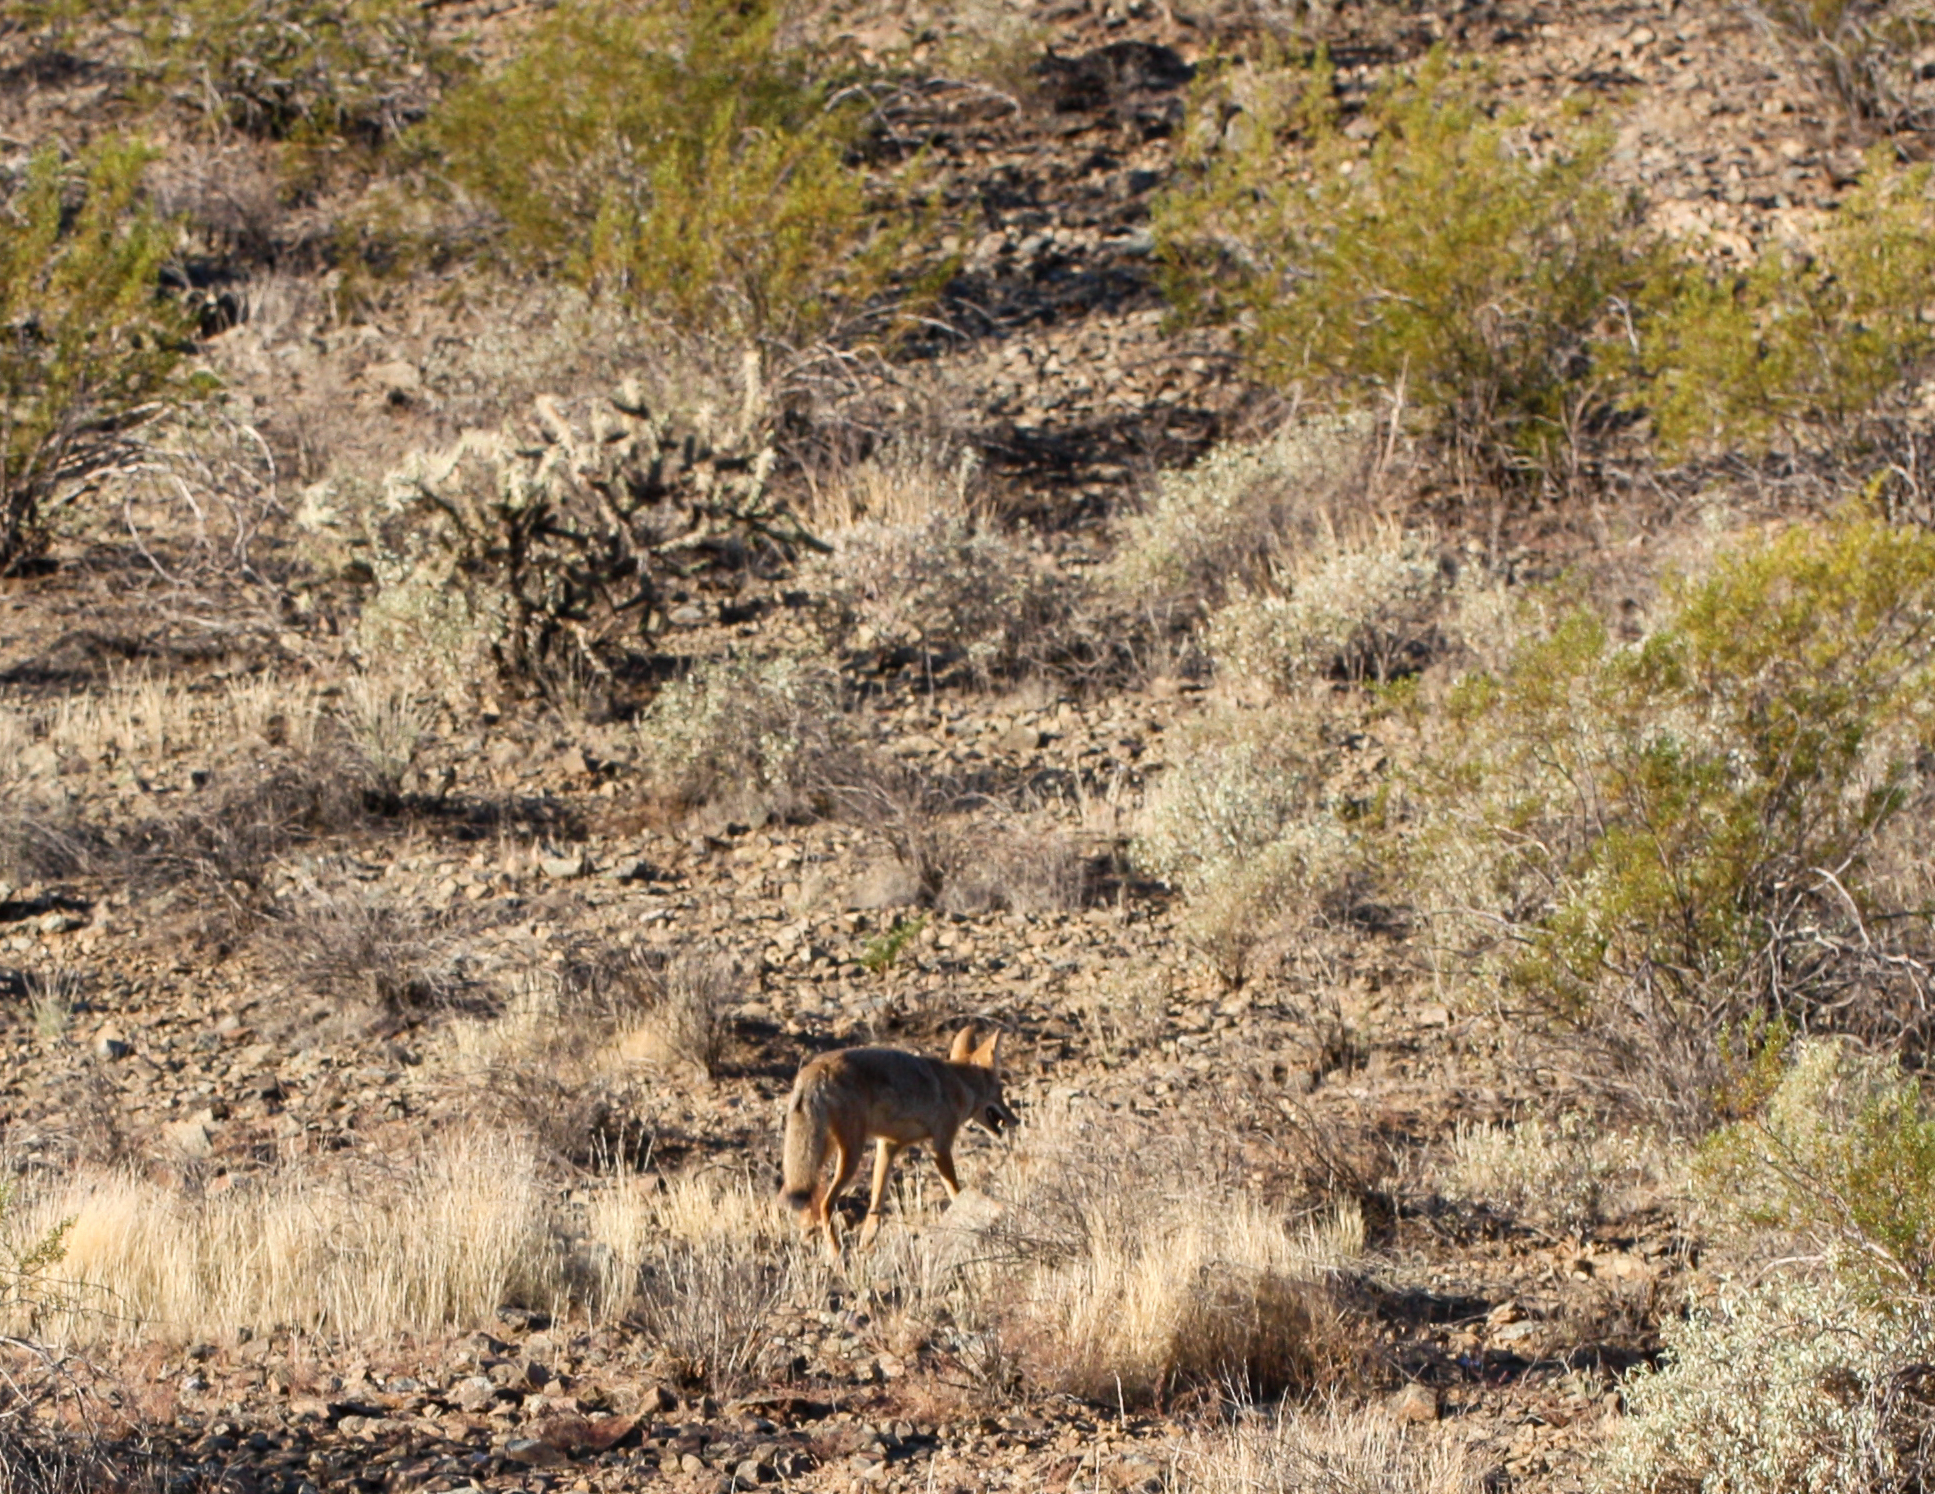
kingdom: Animalia
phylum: Chordata
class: Mammalia
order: Carnivora
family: Canidae
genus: Canis
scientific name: Canis latrans
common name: Coyote
